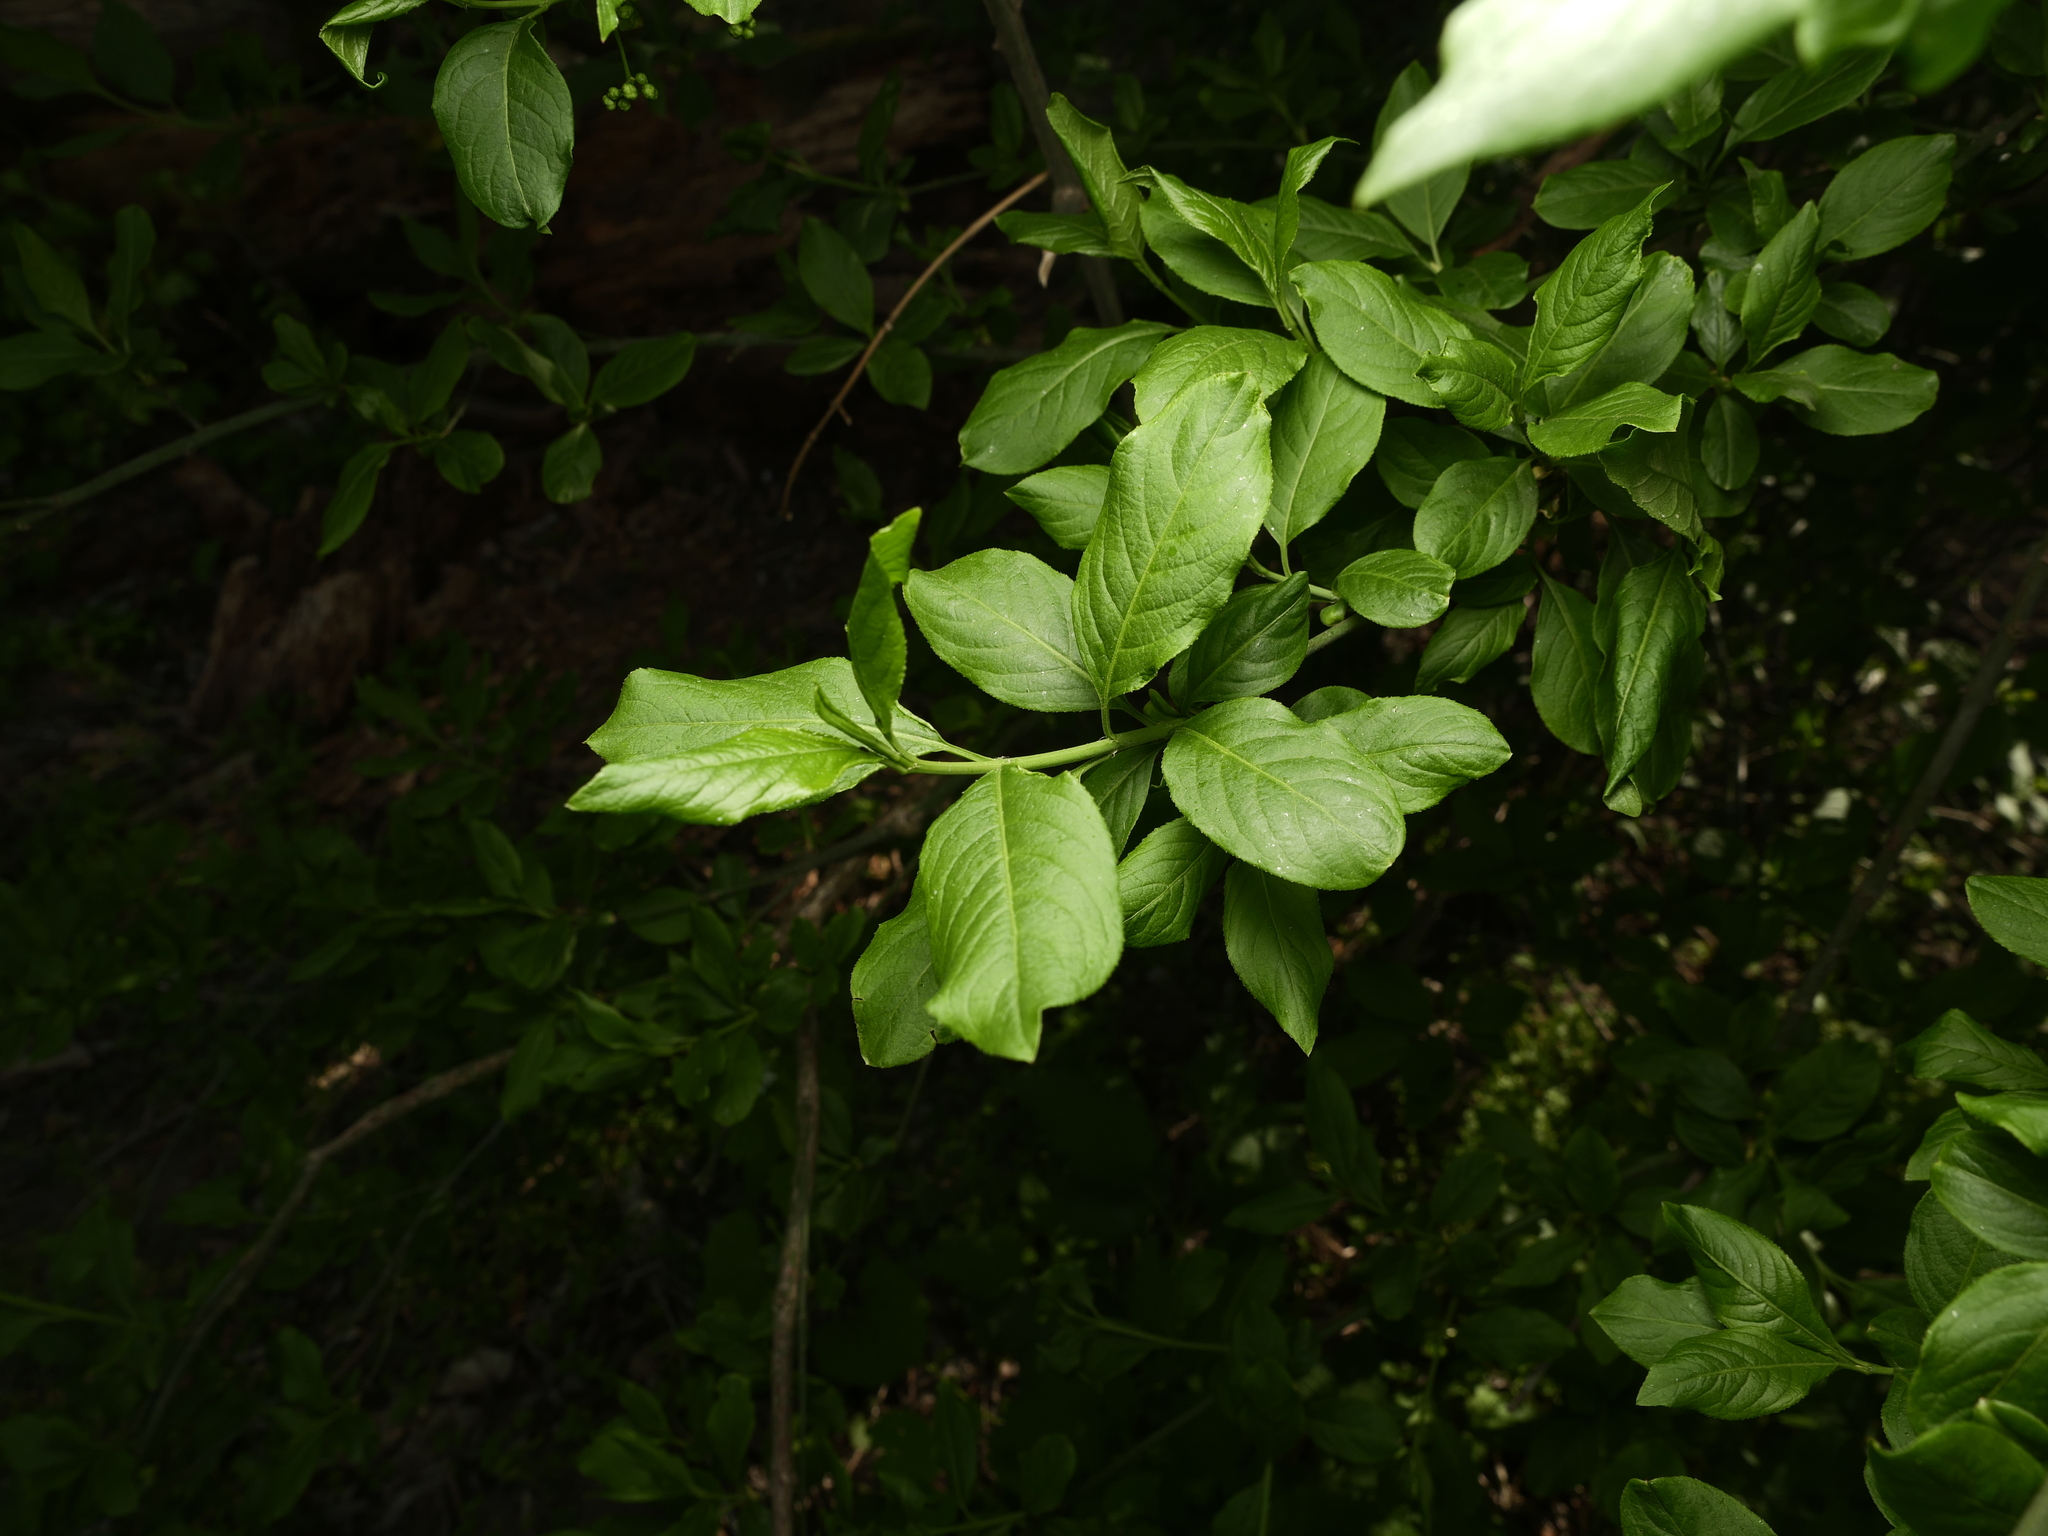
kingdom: Plantae
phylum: Tracheophyta
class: Magnoliopsida
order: Celastrales
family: Celastraceae
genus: Euonymus
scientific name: Euonymus europaeus
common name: Spindle
